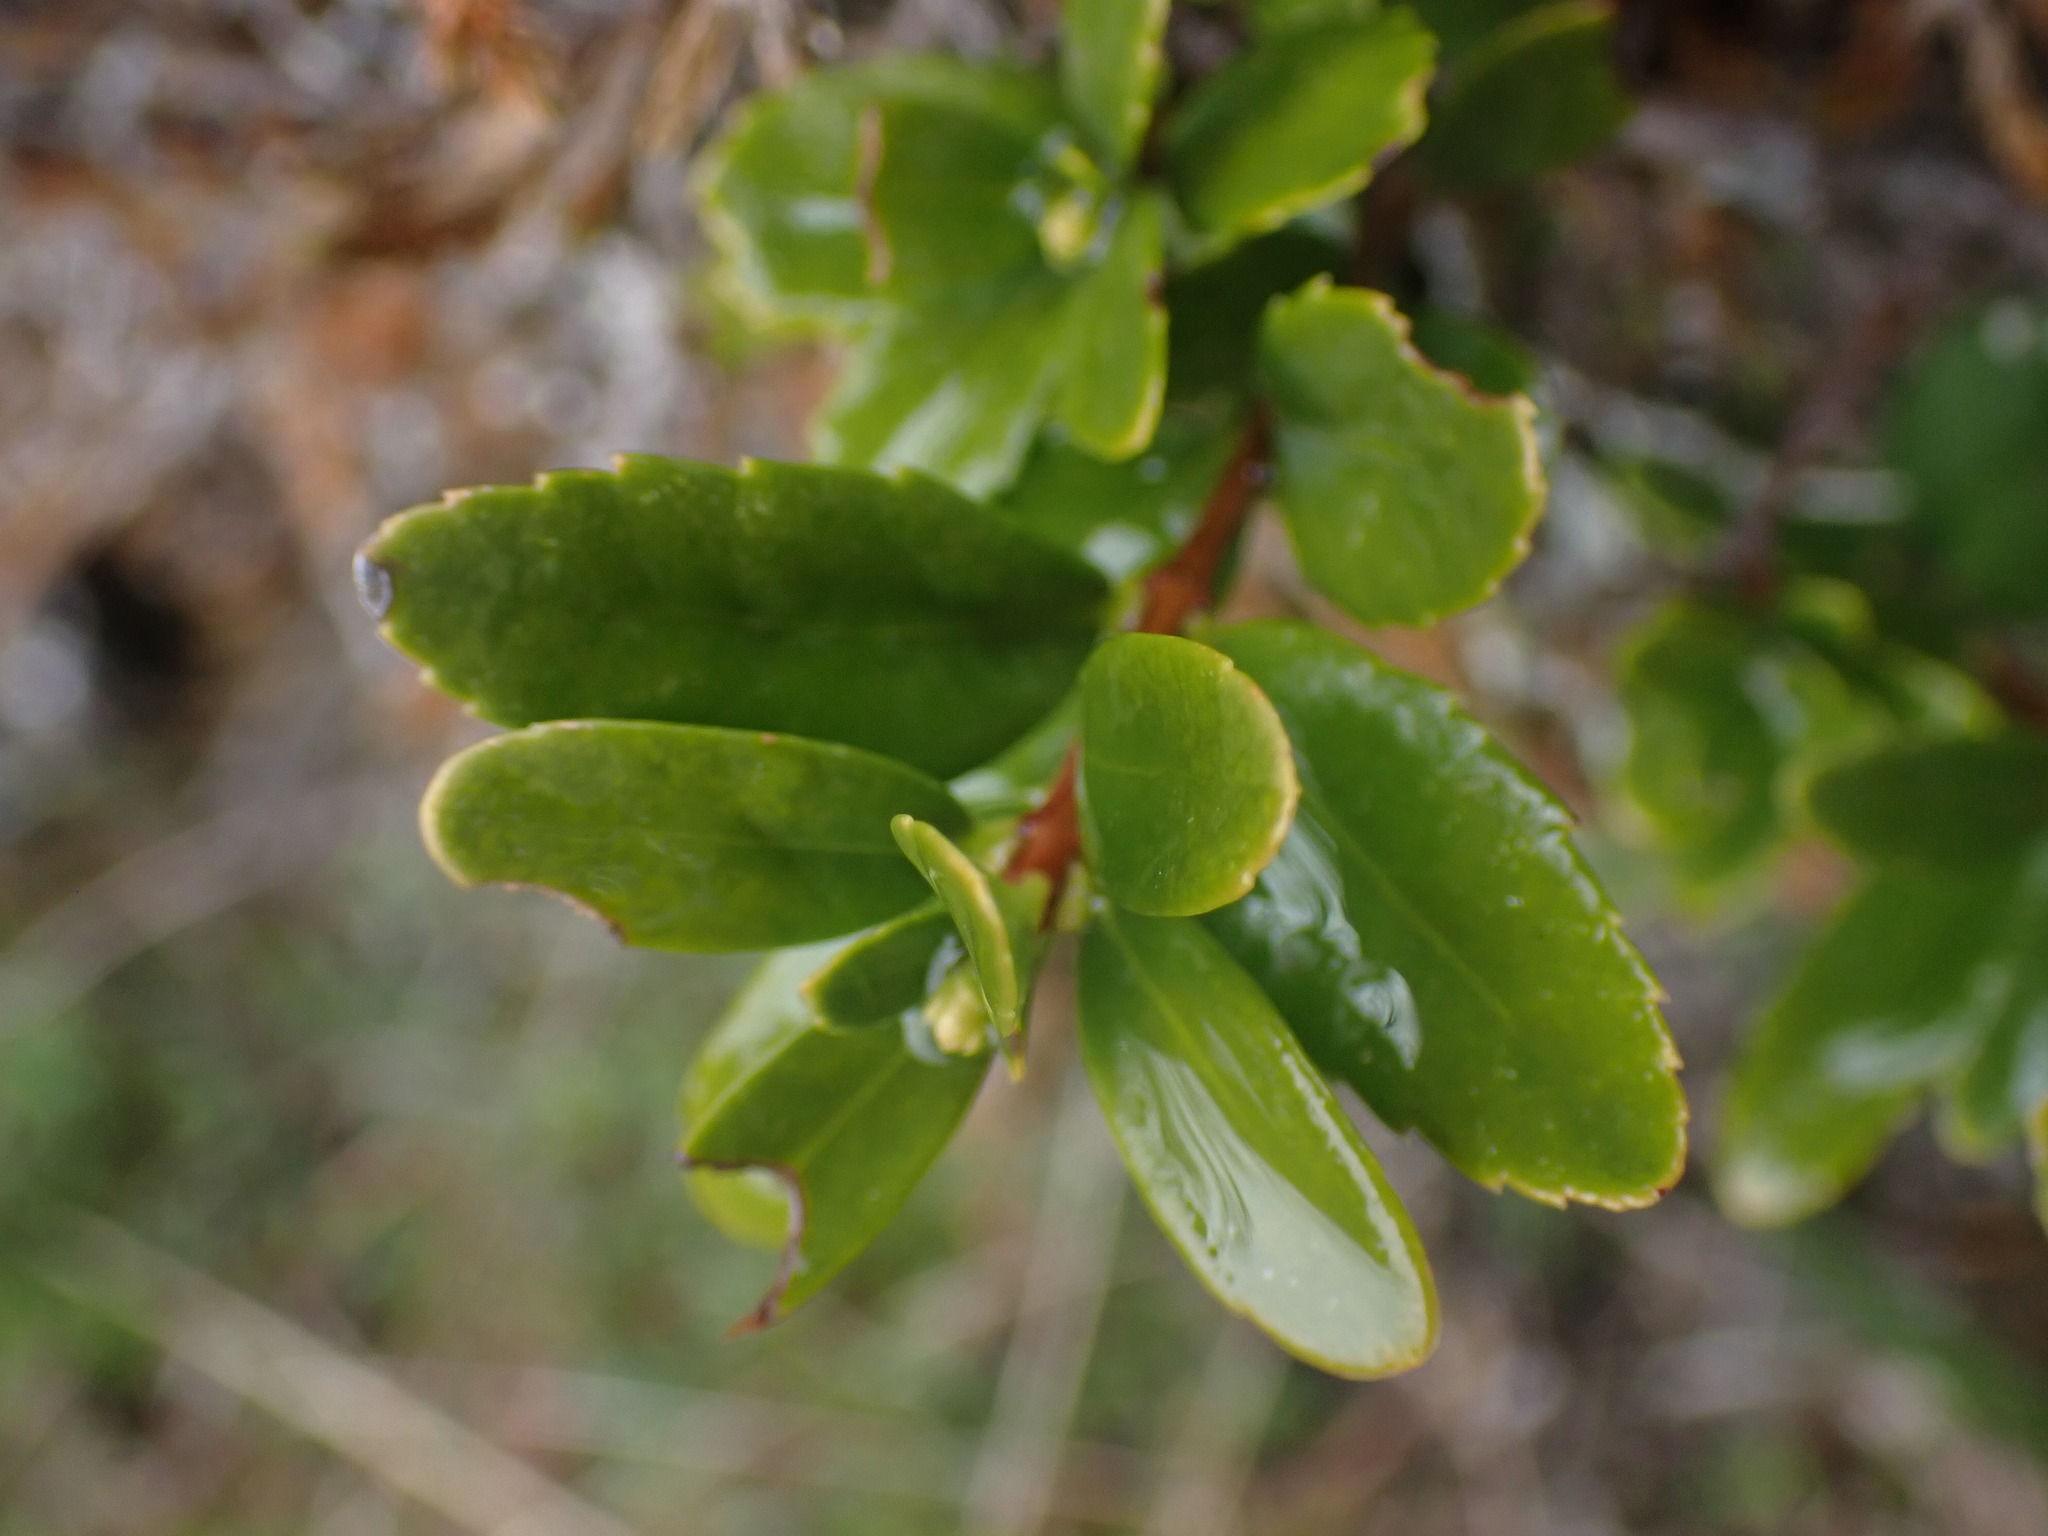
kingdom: Plantae
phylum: Tracheophyta
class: Magnoliopsida
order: Celastrales
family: Celastraceae
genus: Paxistima
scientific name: Paxistima myrsinites
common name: Mountain-lover
